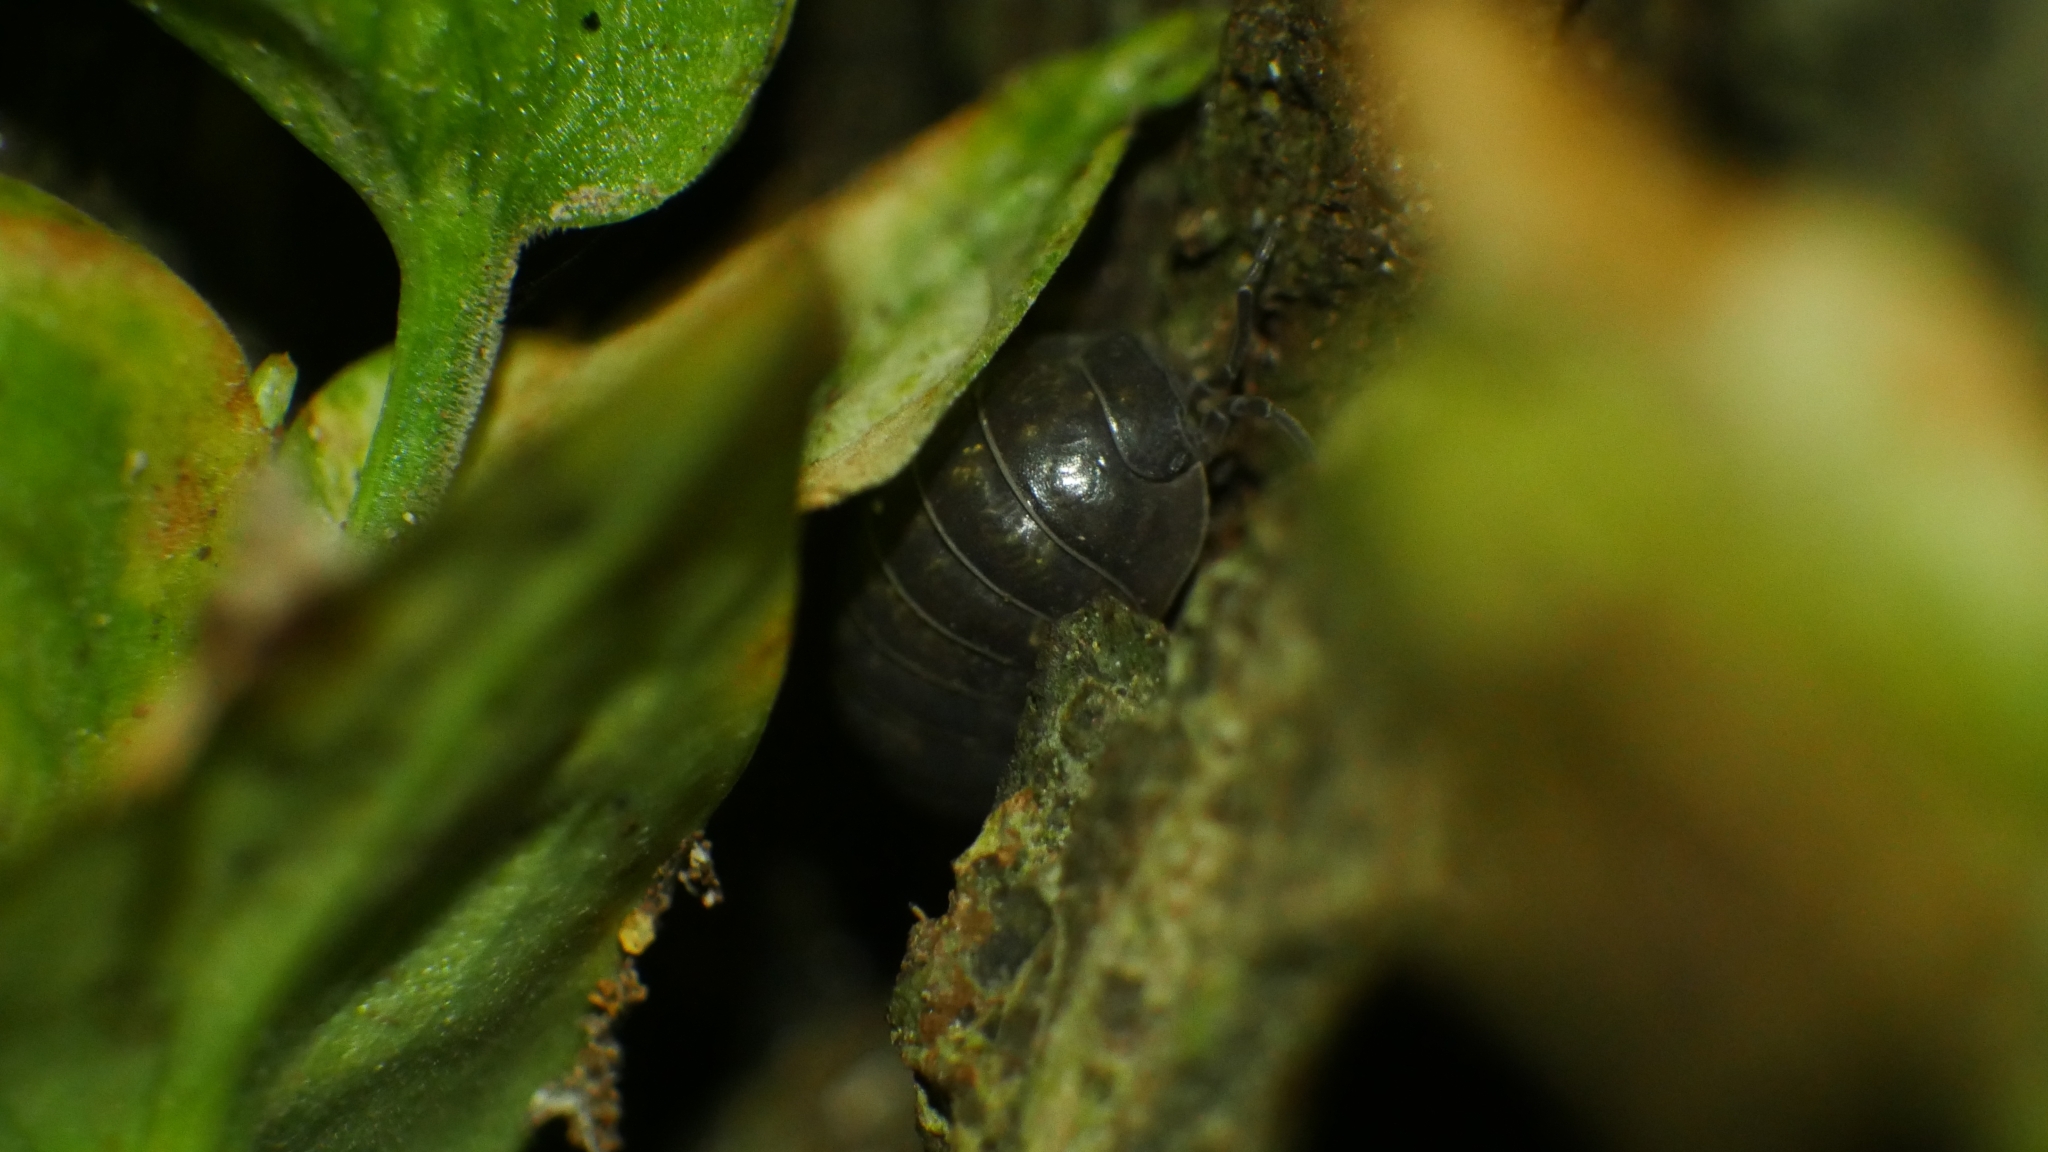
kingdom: Animalia
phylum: Arthropoda
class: Malacostraca
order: Isopoda
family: Armadillidiidae
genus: Armadillidium
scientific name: Armadillidium vulgare
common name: Common pill woodlouse
